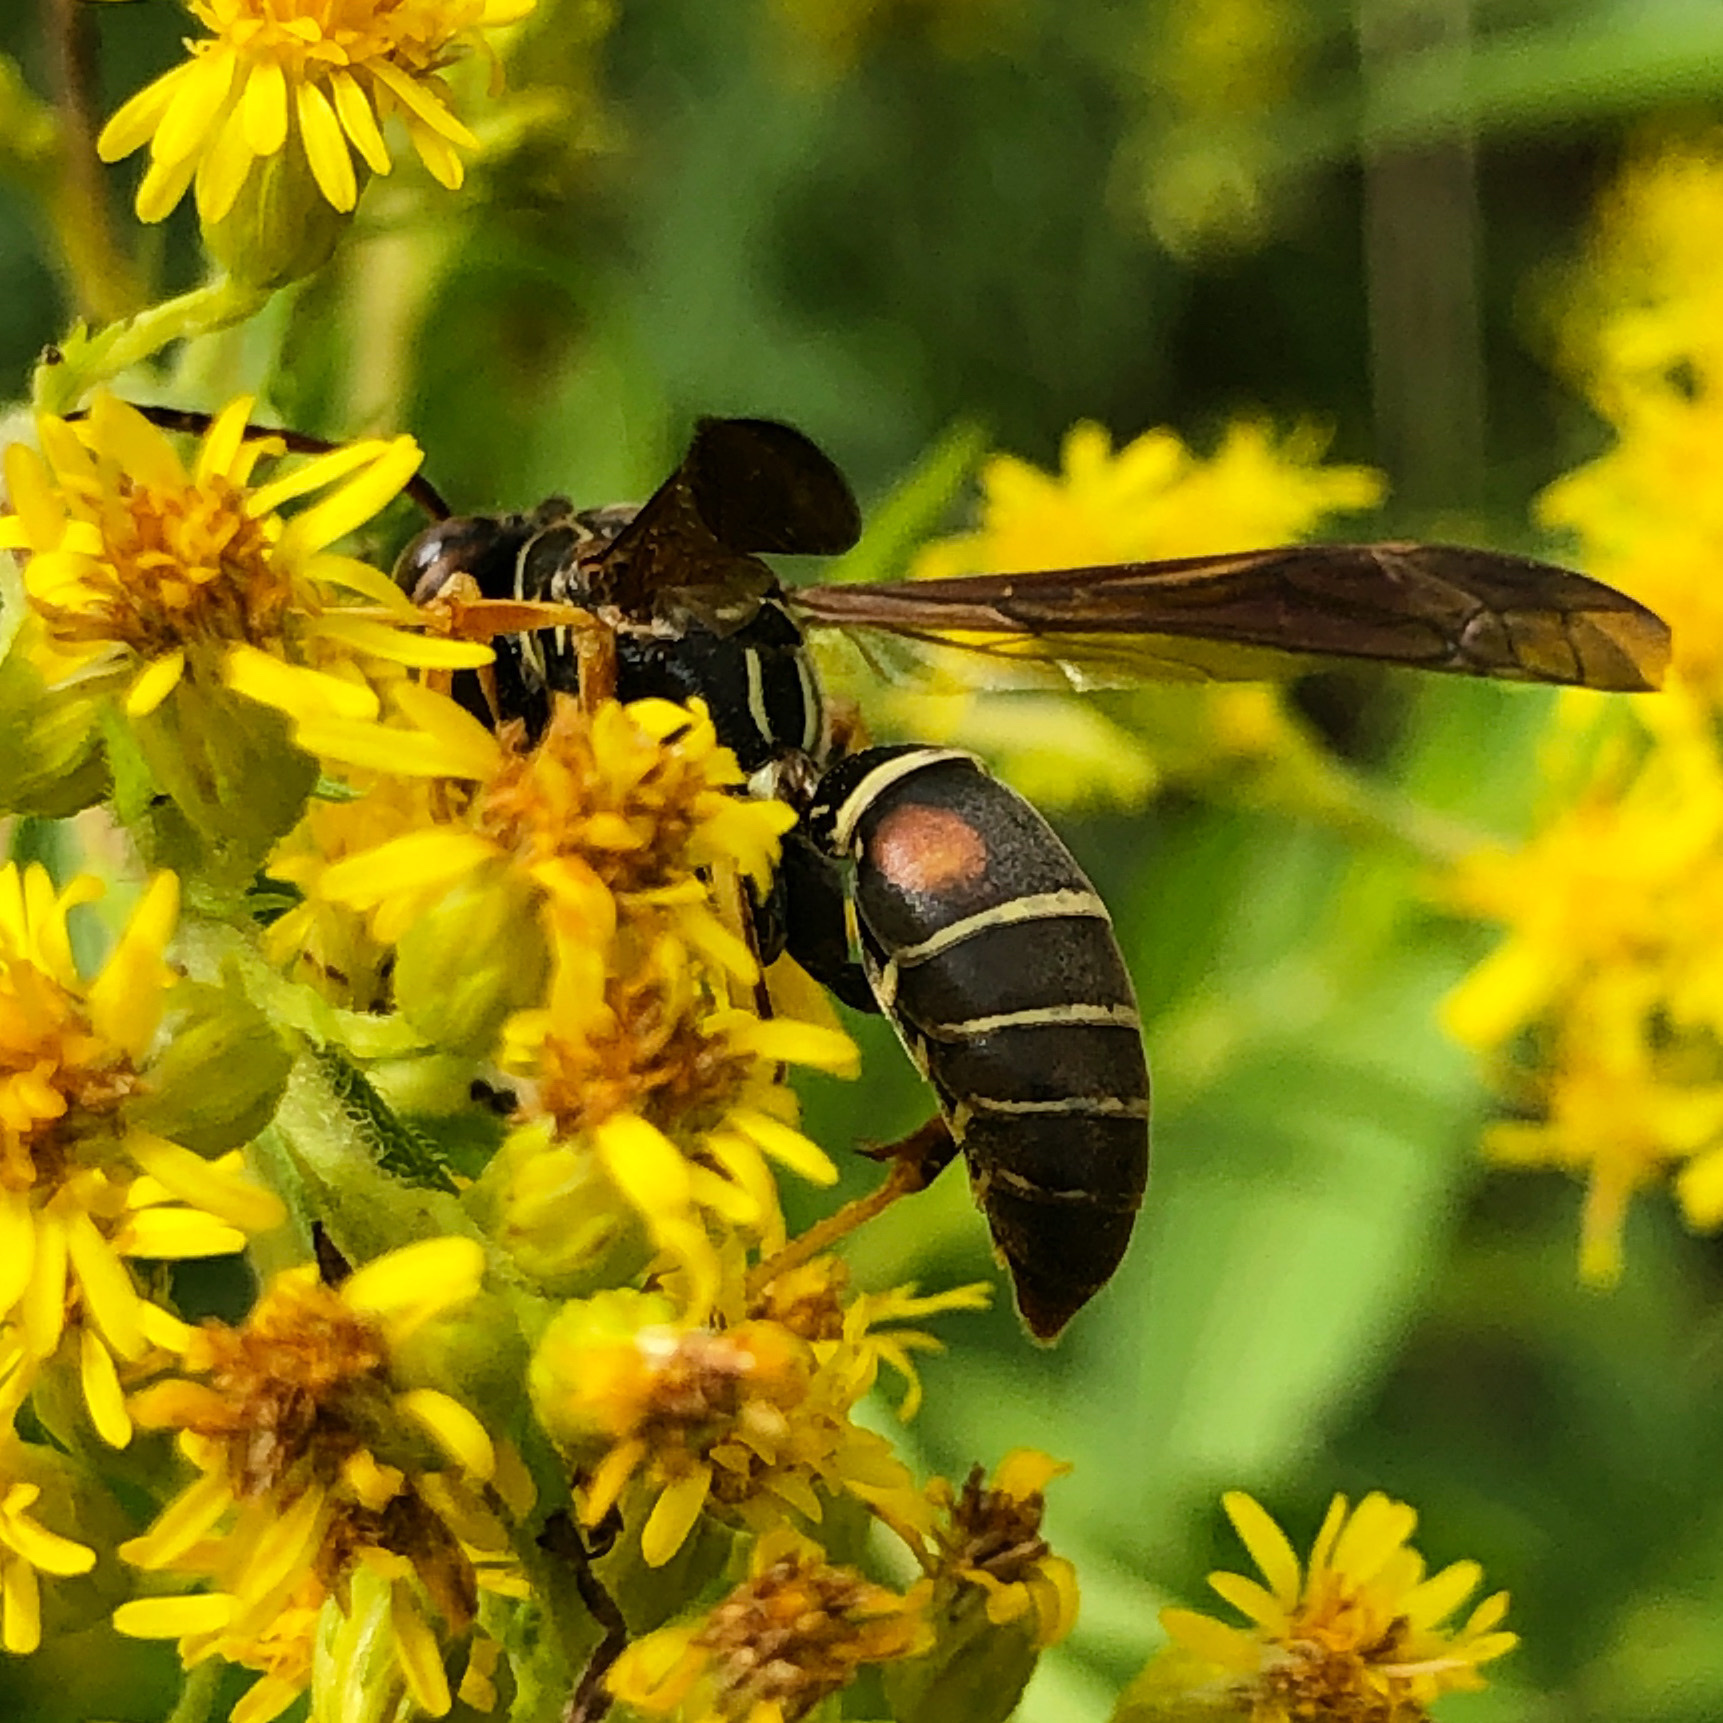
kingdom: Animalia
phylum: Arthropoda
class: Insecta
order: Hymenoptera
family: Eumenidae
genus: Polistes
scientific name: Polistes fuscatus
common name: Dark paper wasp
